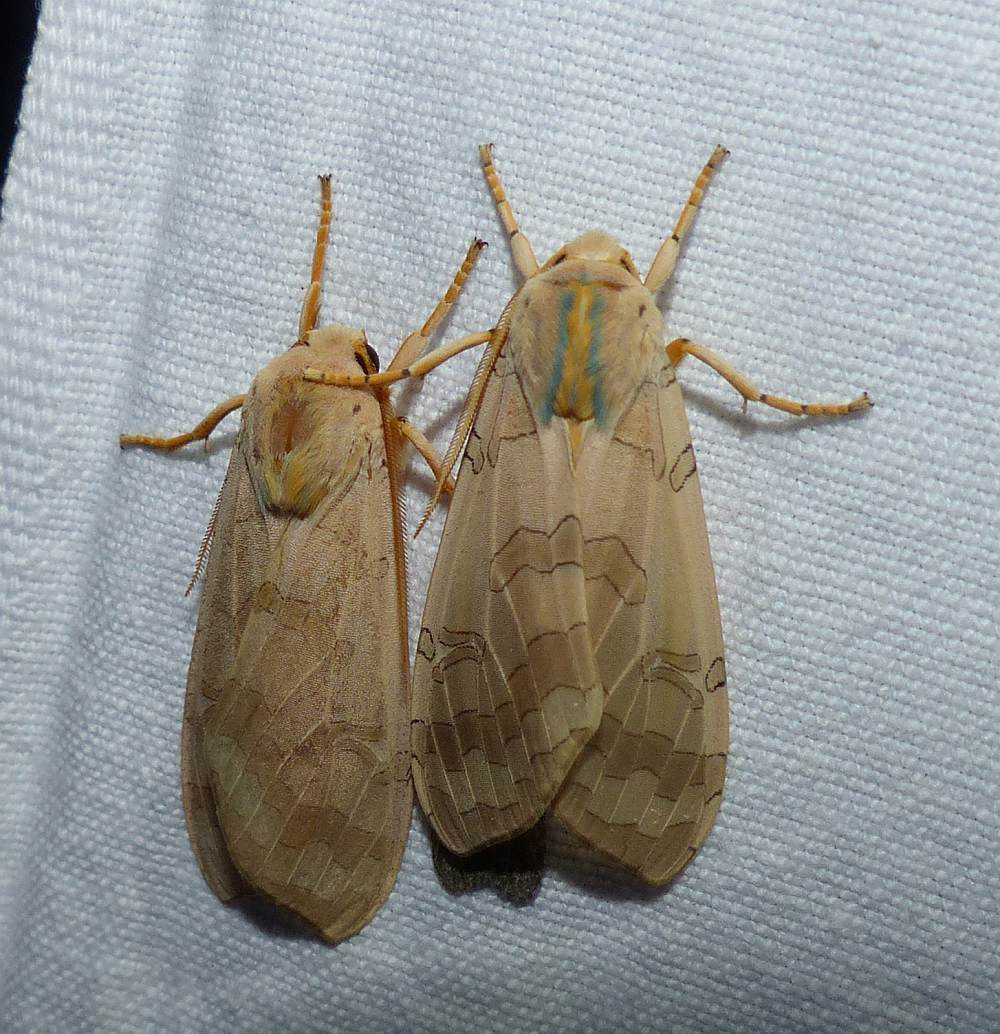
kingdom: Animalia
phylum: Arthropoda
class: Insecta
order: Lepidoptera
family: Erebidae
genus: Halysidota
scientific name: Halysidota tessellaris
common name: Banded tussock moth
